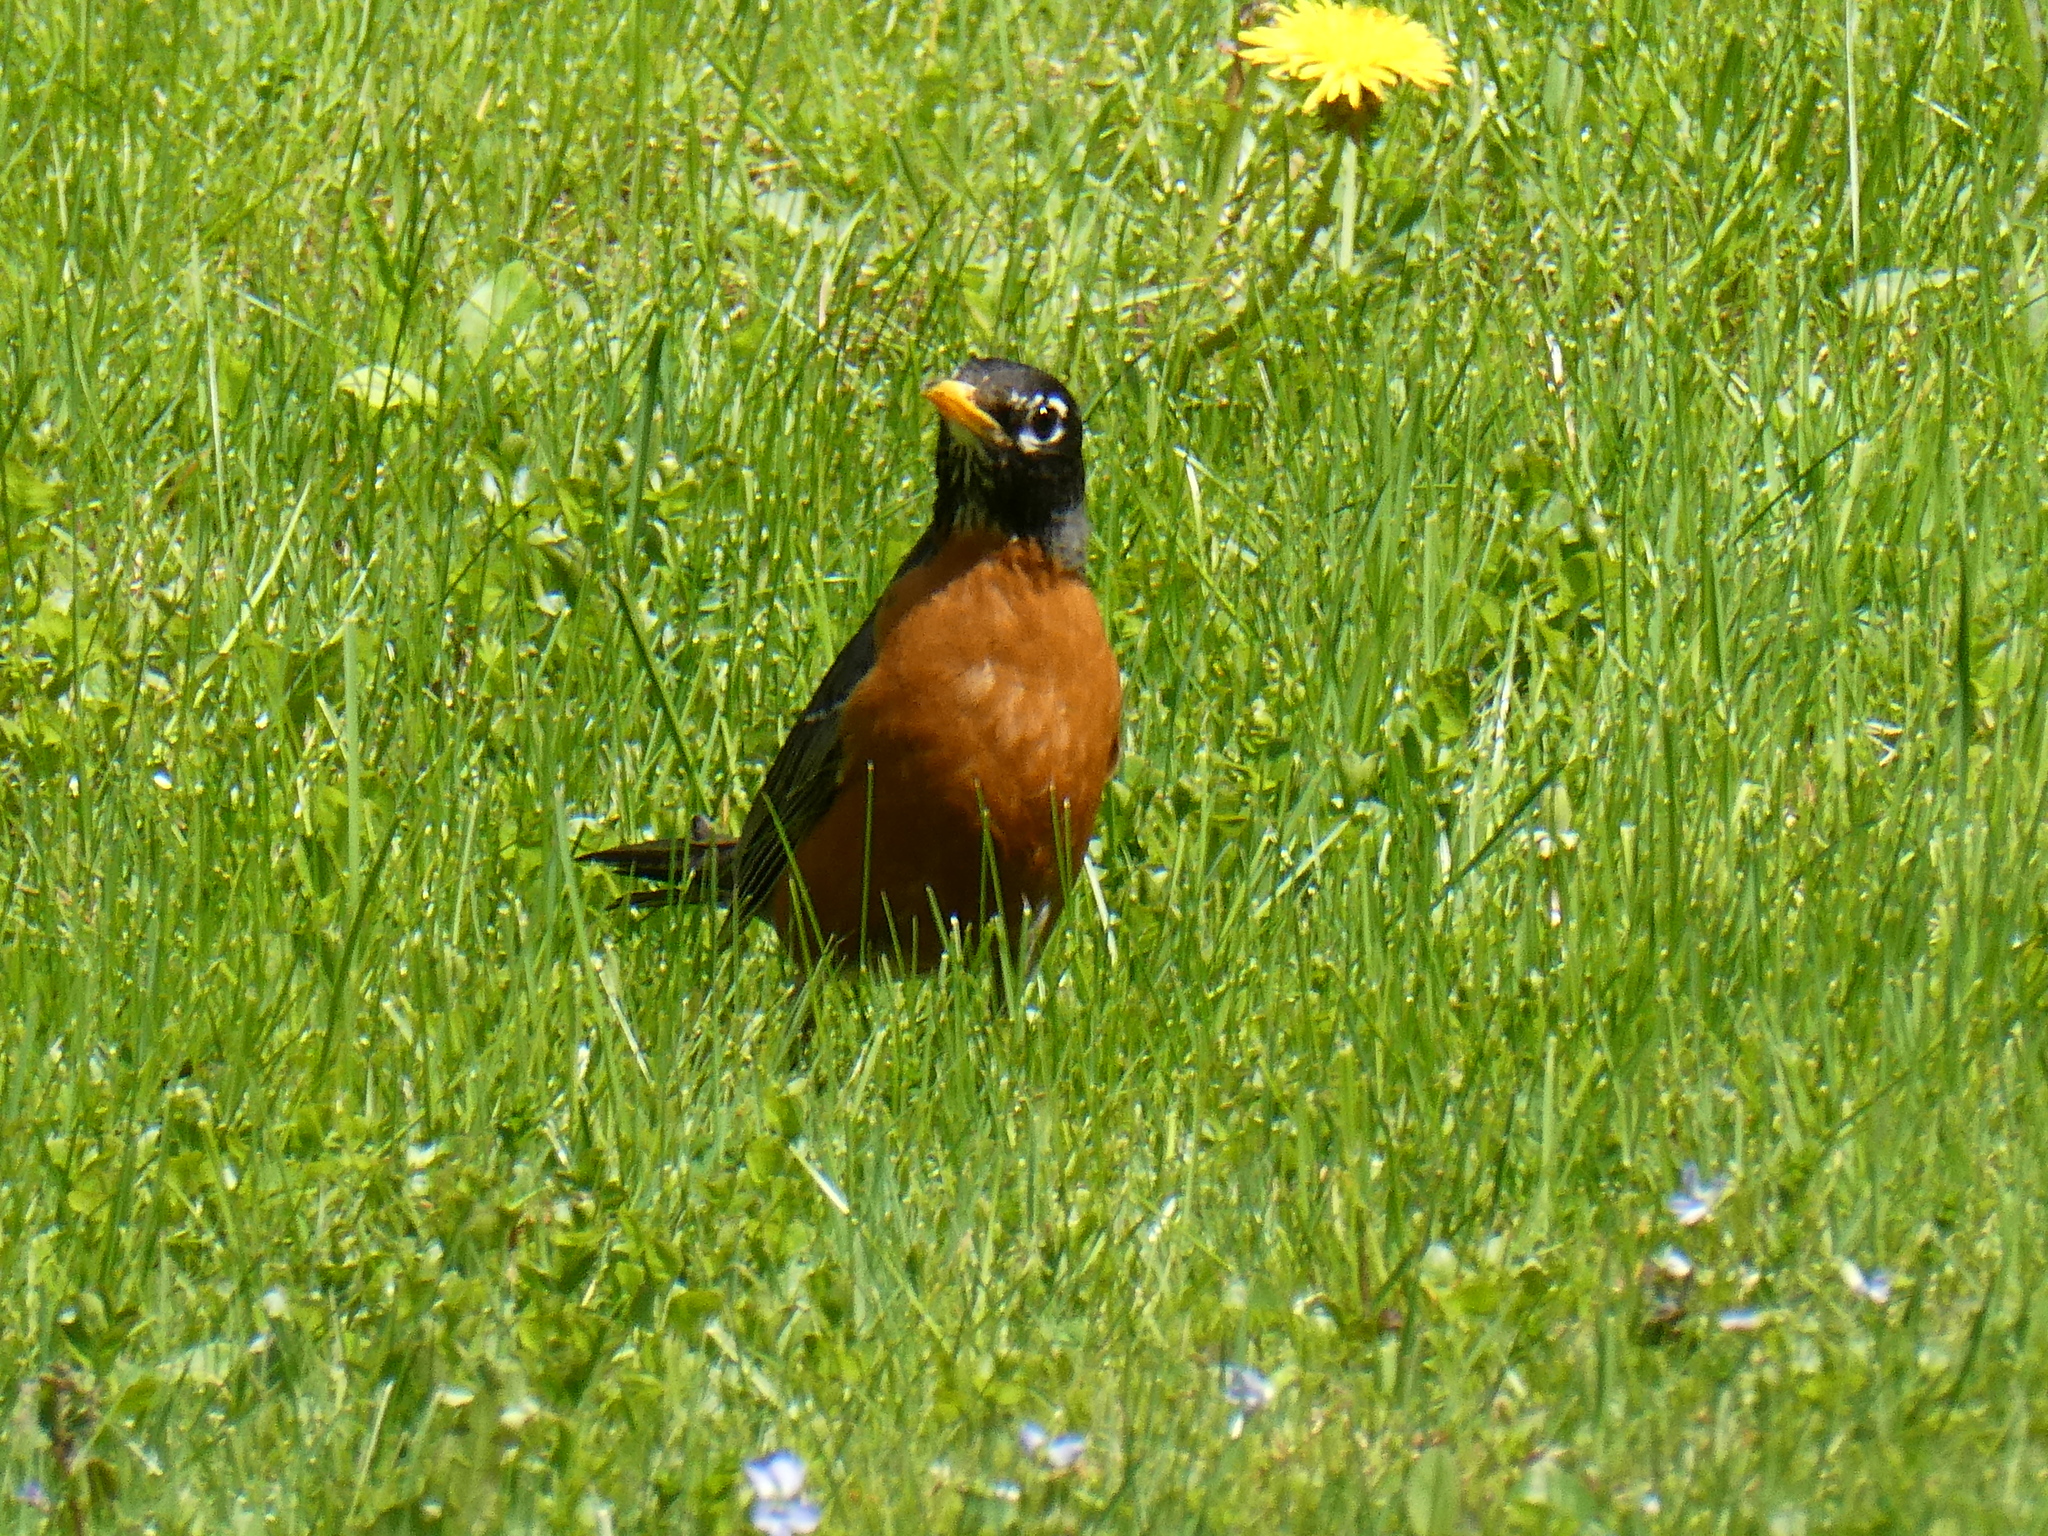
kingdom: Animalia
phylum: Chordata
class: Aves
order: Passeriformes
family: Turdidae
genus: Turdus
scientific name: Turdus migratorius
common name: American robin
